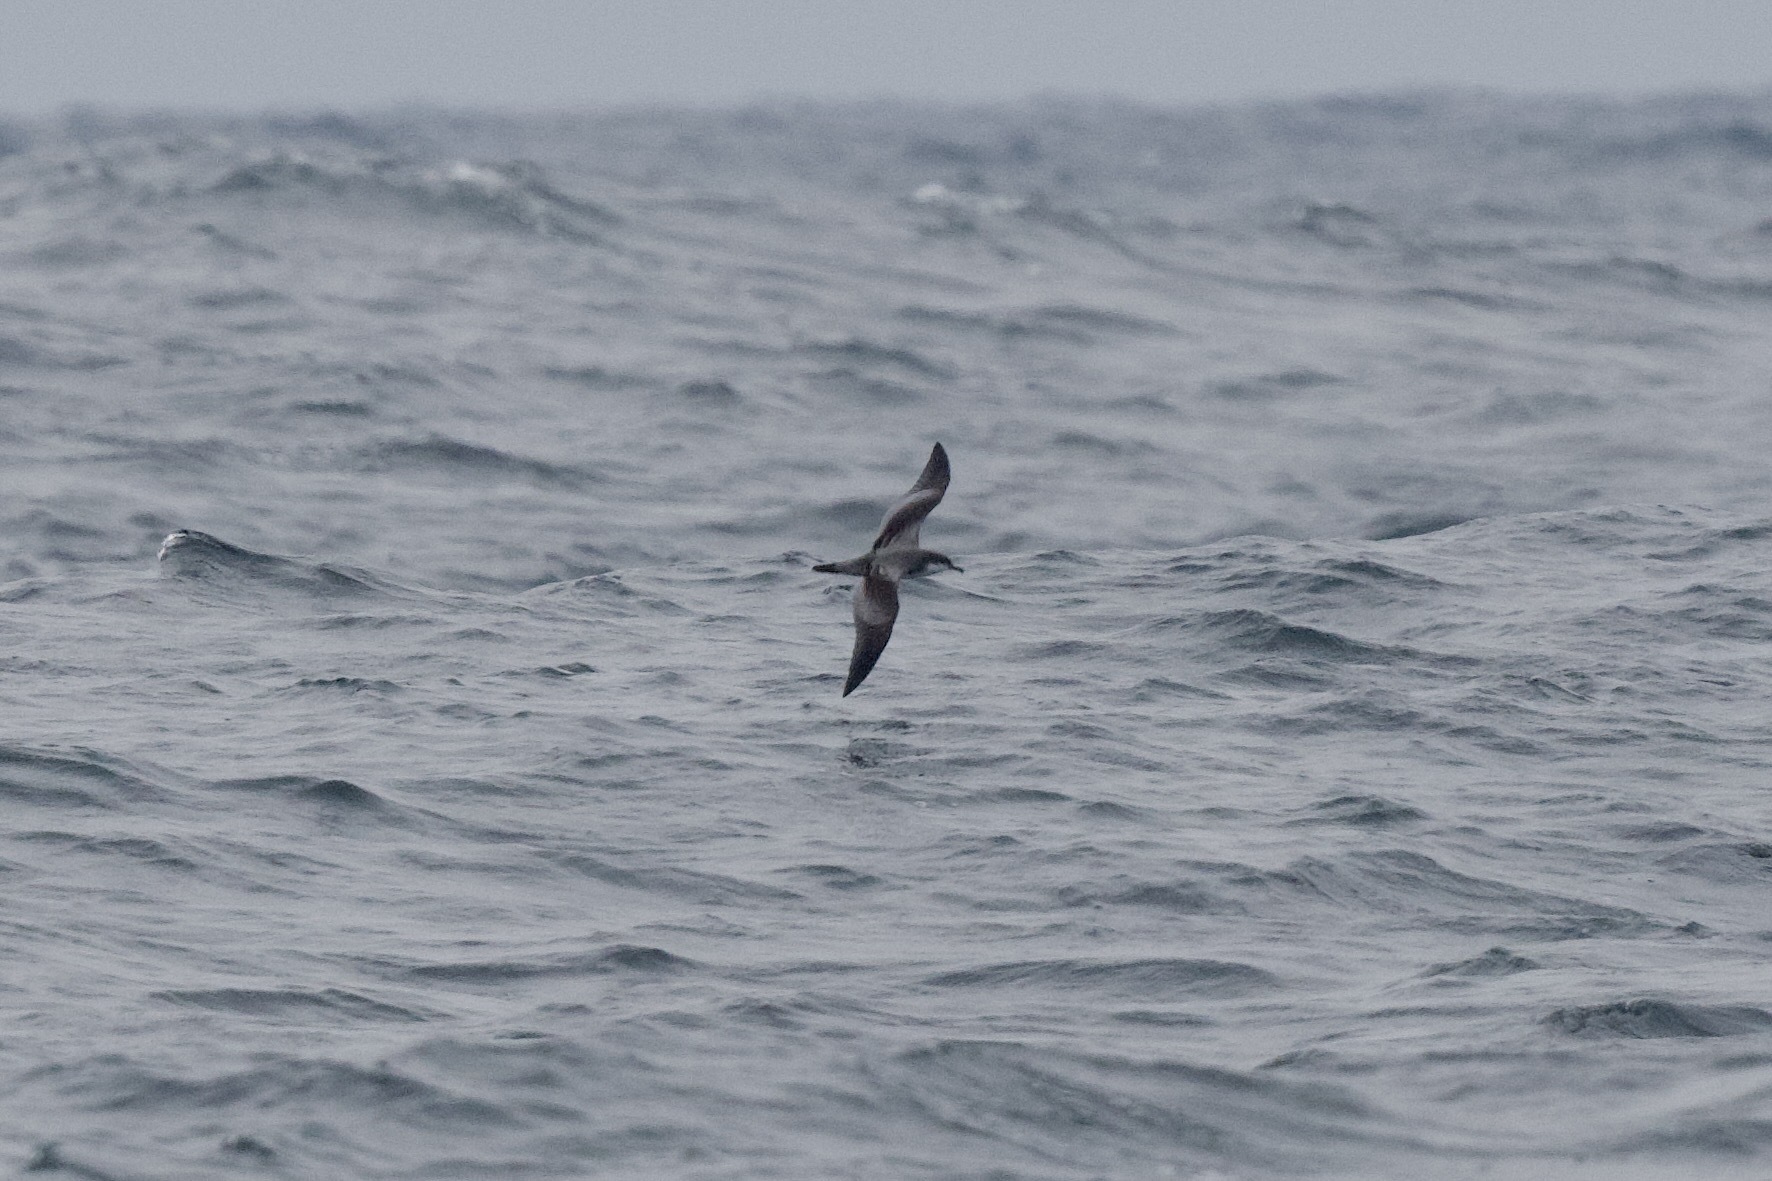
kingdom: Animalia
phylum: Chordata
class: Aves
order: Procellariiformes
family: Procellariidae
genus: Puffinus
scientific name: Puffinus bulleri
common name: Buller's shearwater
